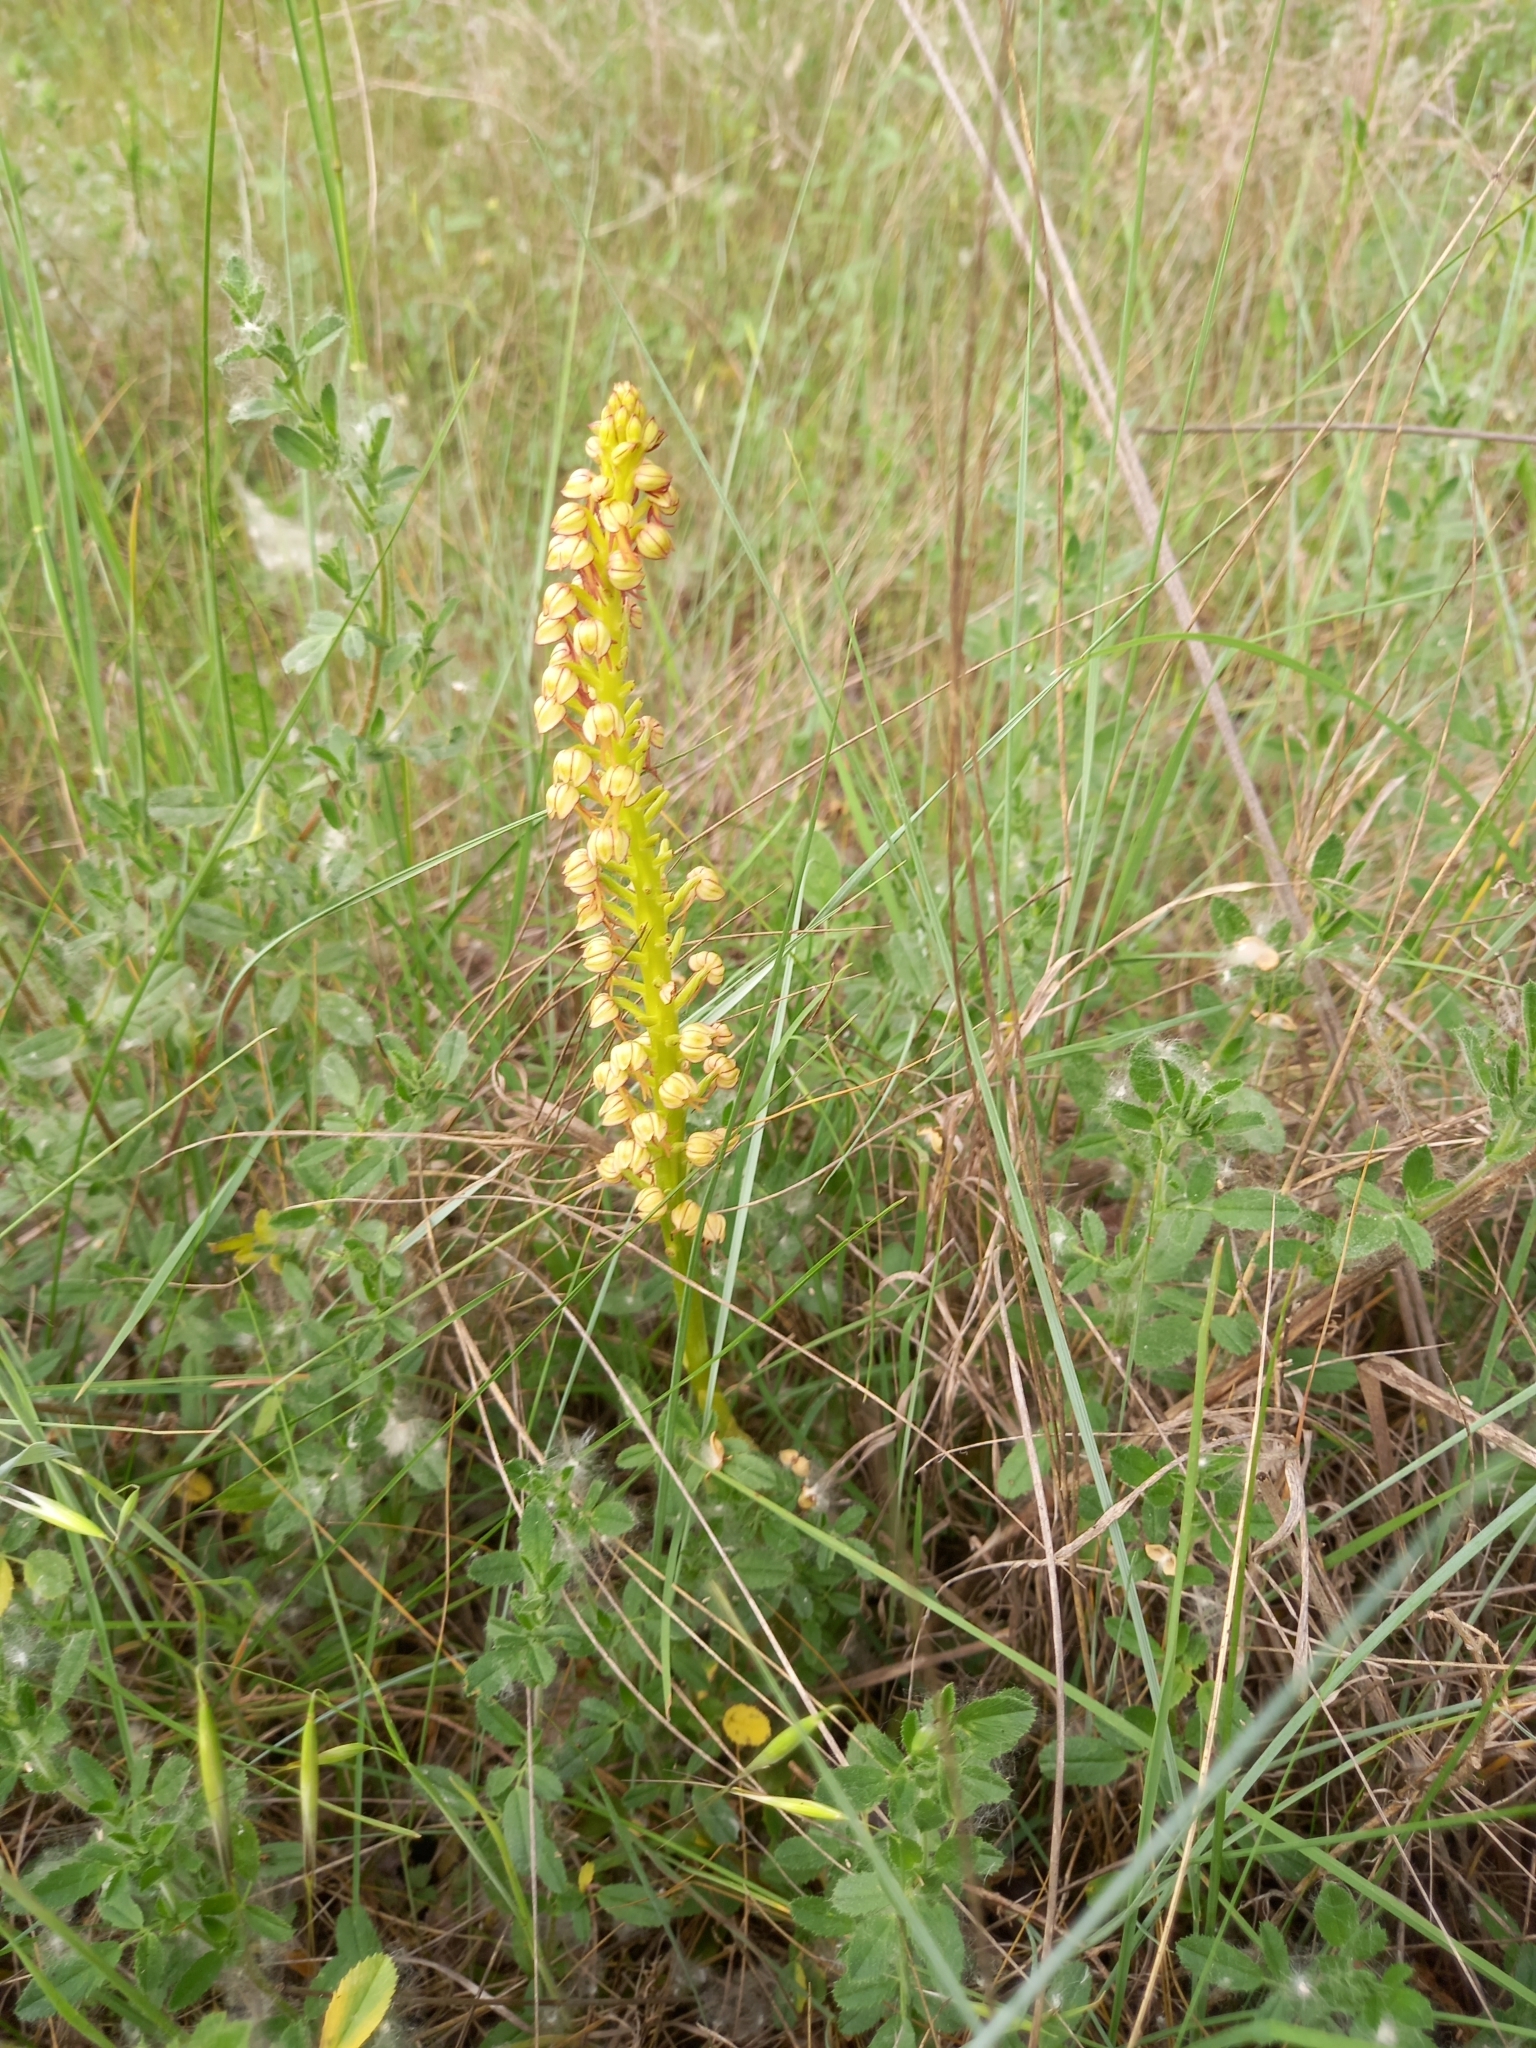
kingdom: Plantae
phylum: Tracheophyta
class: Liliopsida
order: Asparagales
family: Orchidaceae
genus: Orchis
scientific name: Orchis anthropophora
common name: Man orchid
